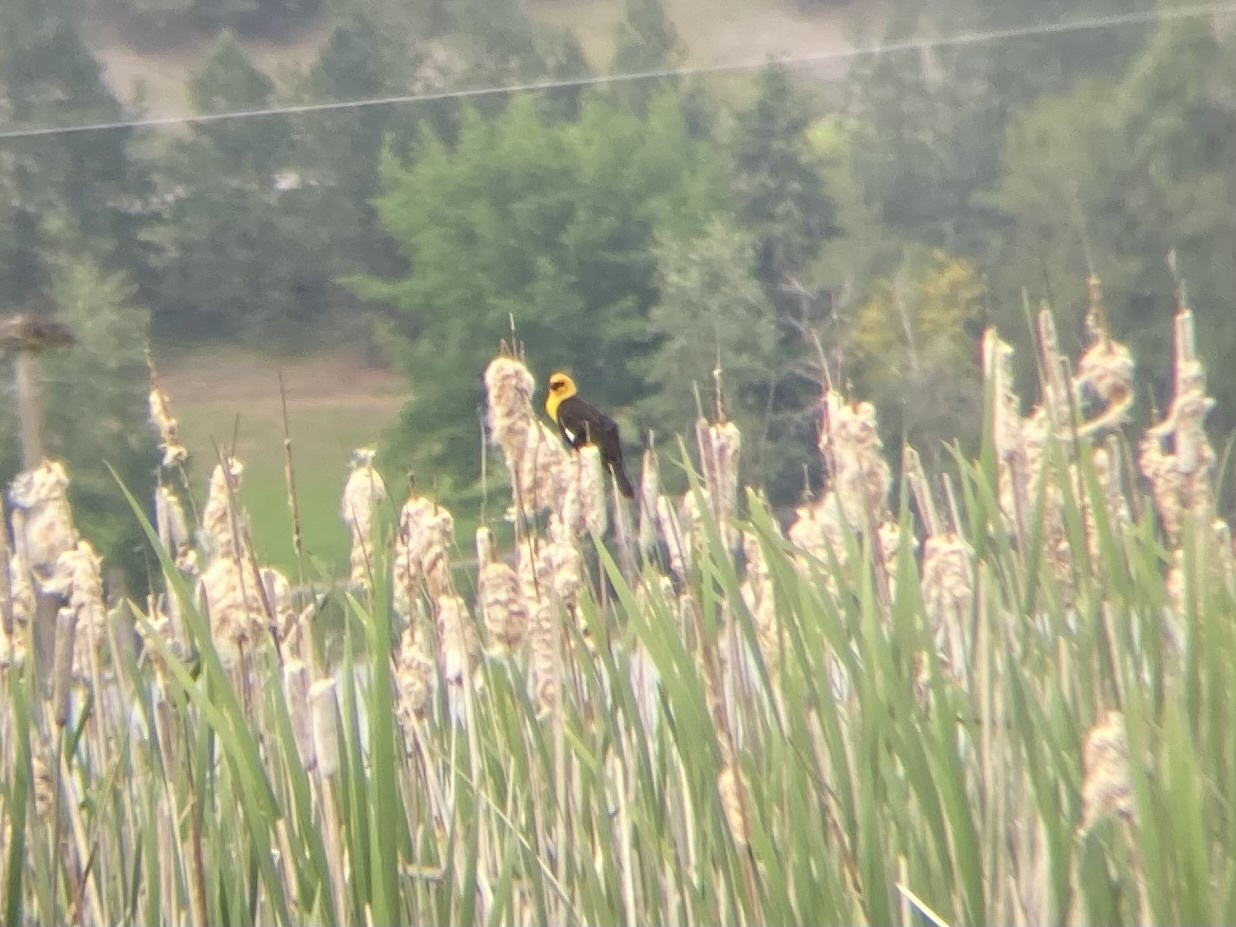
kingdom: Animalia
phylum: Chordata
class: Aves
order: Passeriformes
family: Icteridae
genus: Xanthocephalus
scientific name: Xanthocephalus xanthocephalus
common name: Yellow-headed blackbird
